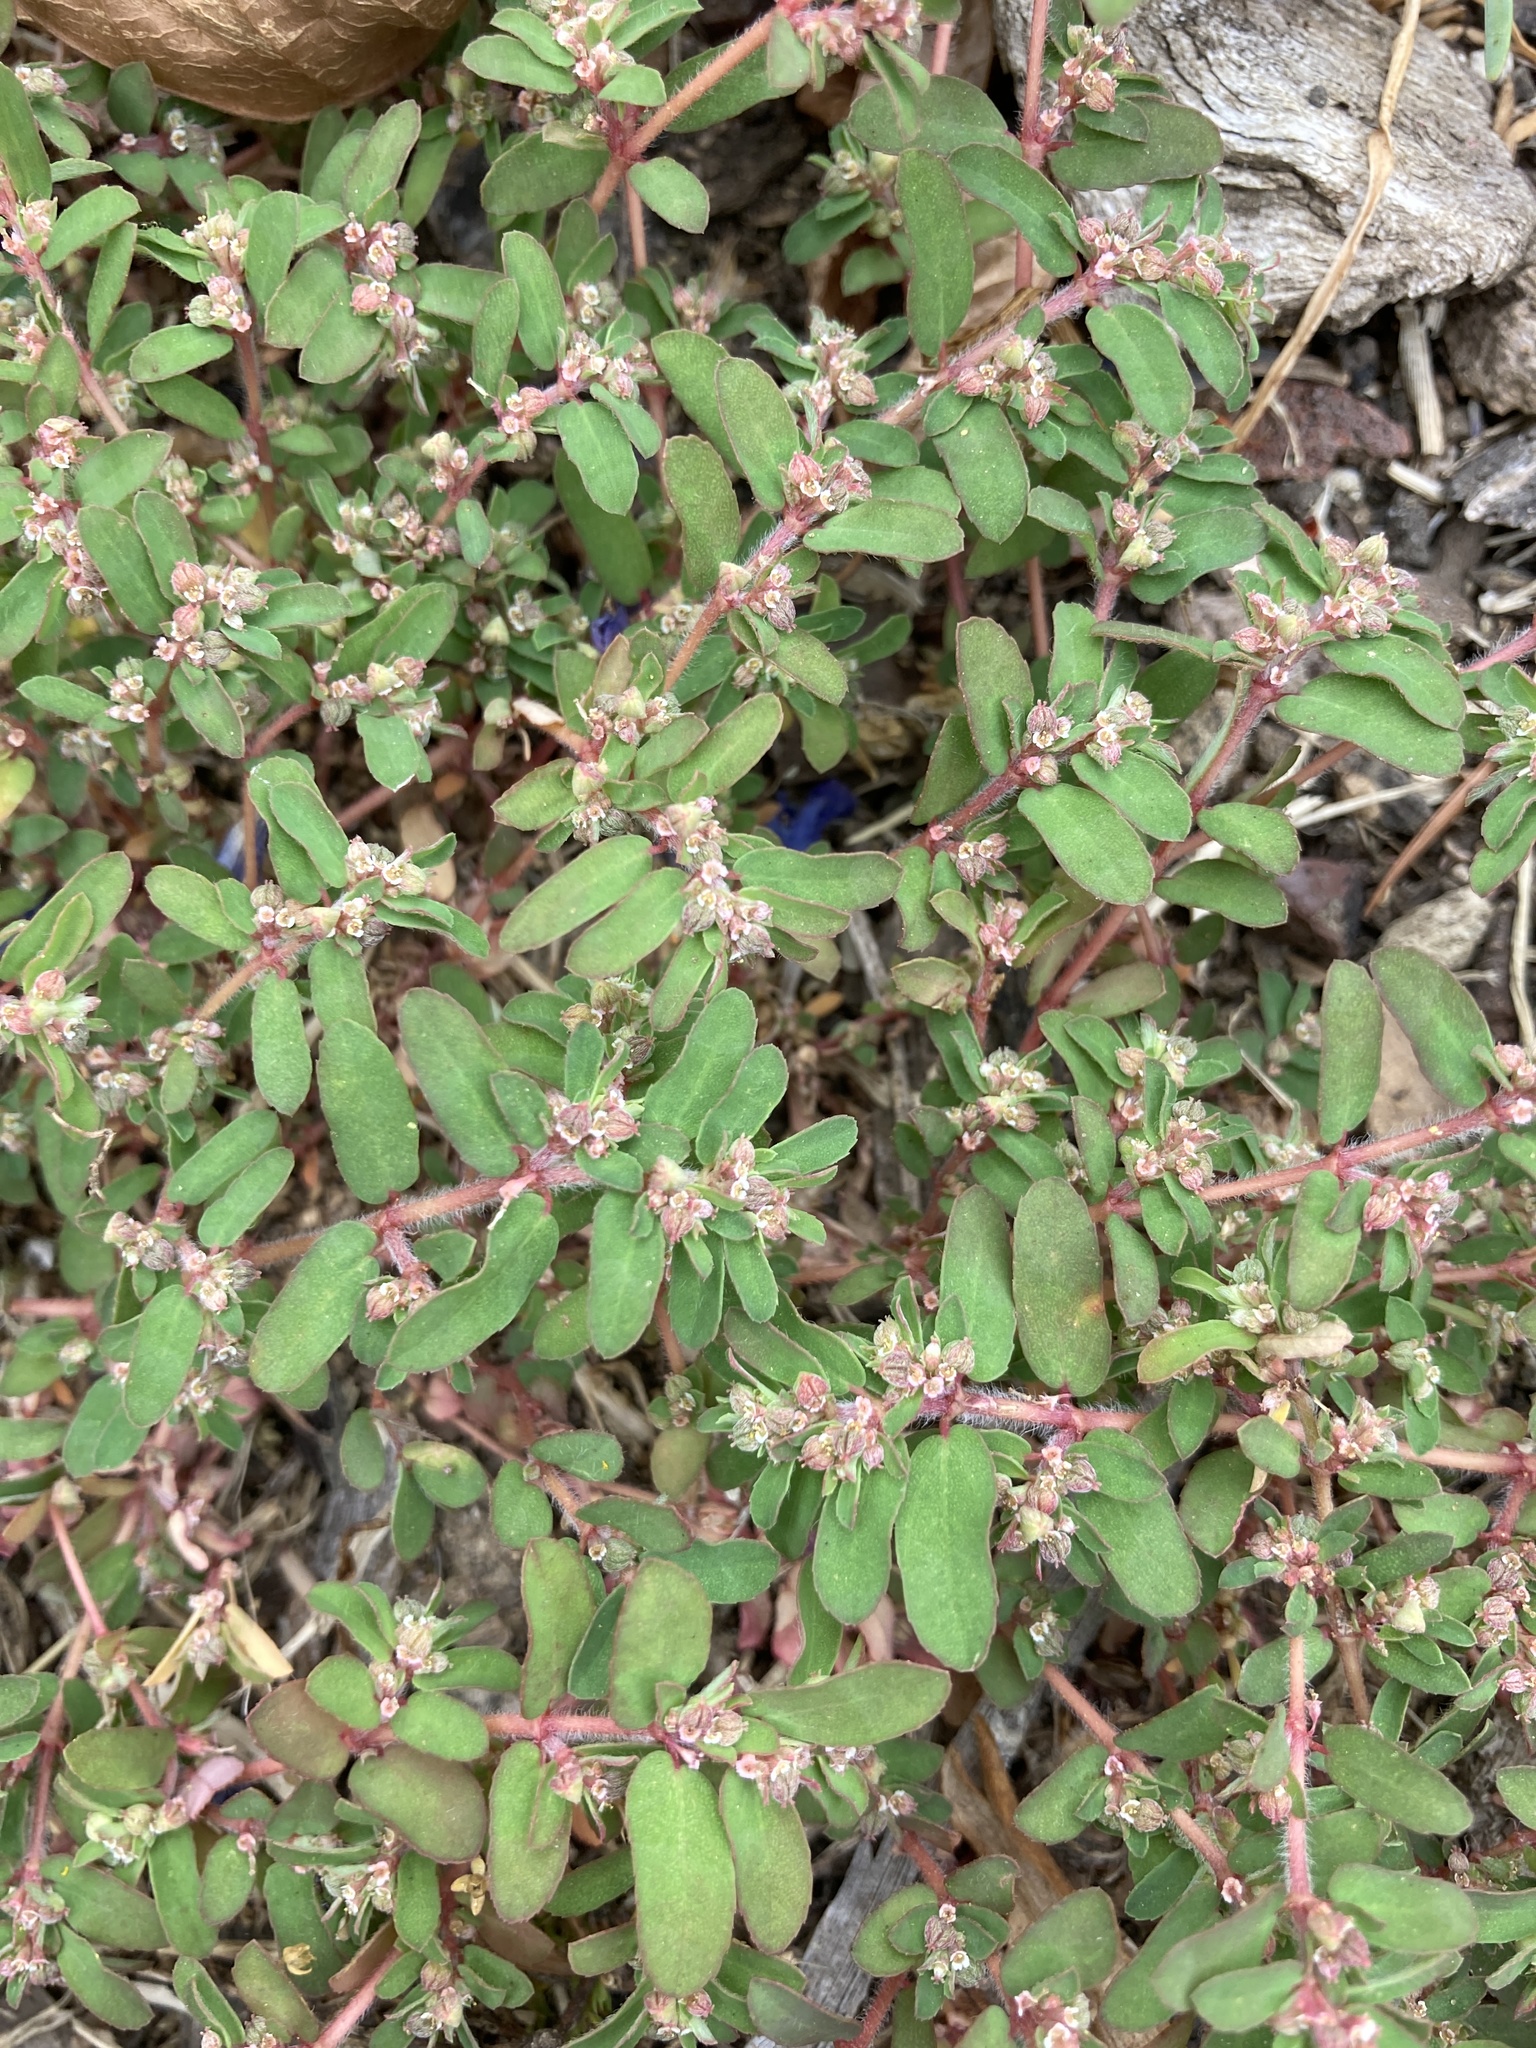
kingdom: Plantae
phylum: Tracheophyta
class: Magnoliopsida
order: Malpighiales
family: Euphorbiaceae
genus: Euphorbia
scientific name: Euphorbia maculata
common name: Spotted spurge
